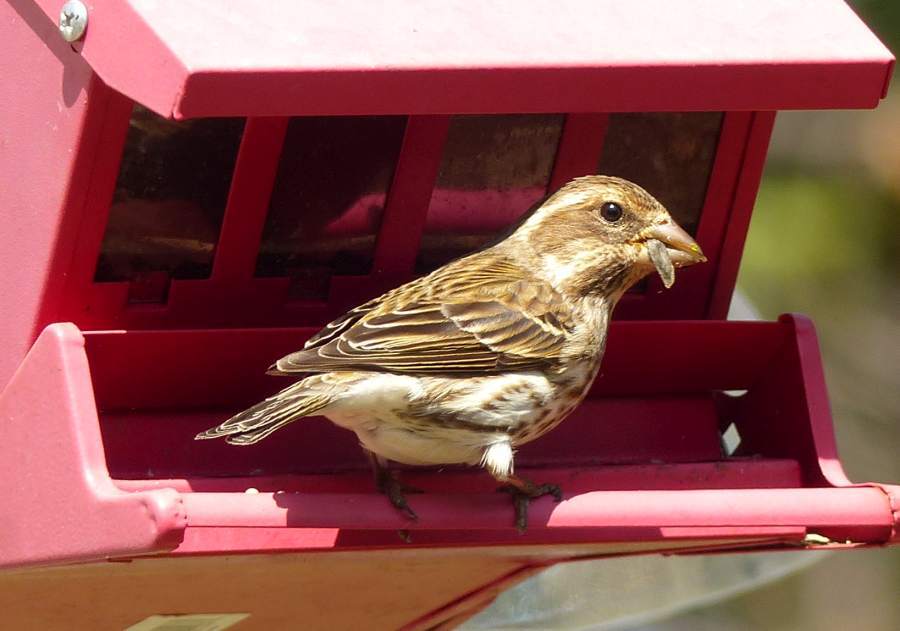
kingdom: Animalia
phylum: Chordata
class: Aves
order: Passeriformes
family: Fringillidae
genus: Haemorhous
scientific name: Haemorhous purpureus
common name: Purple finch
